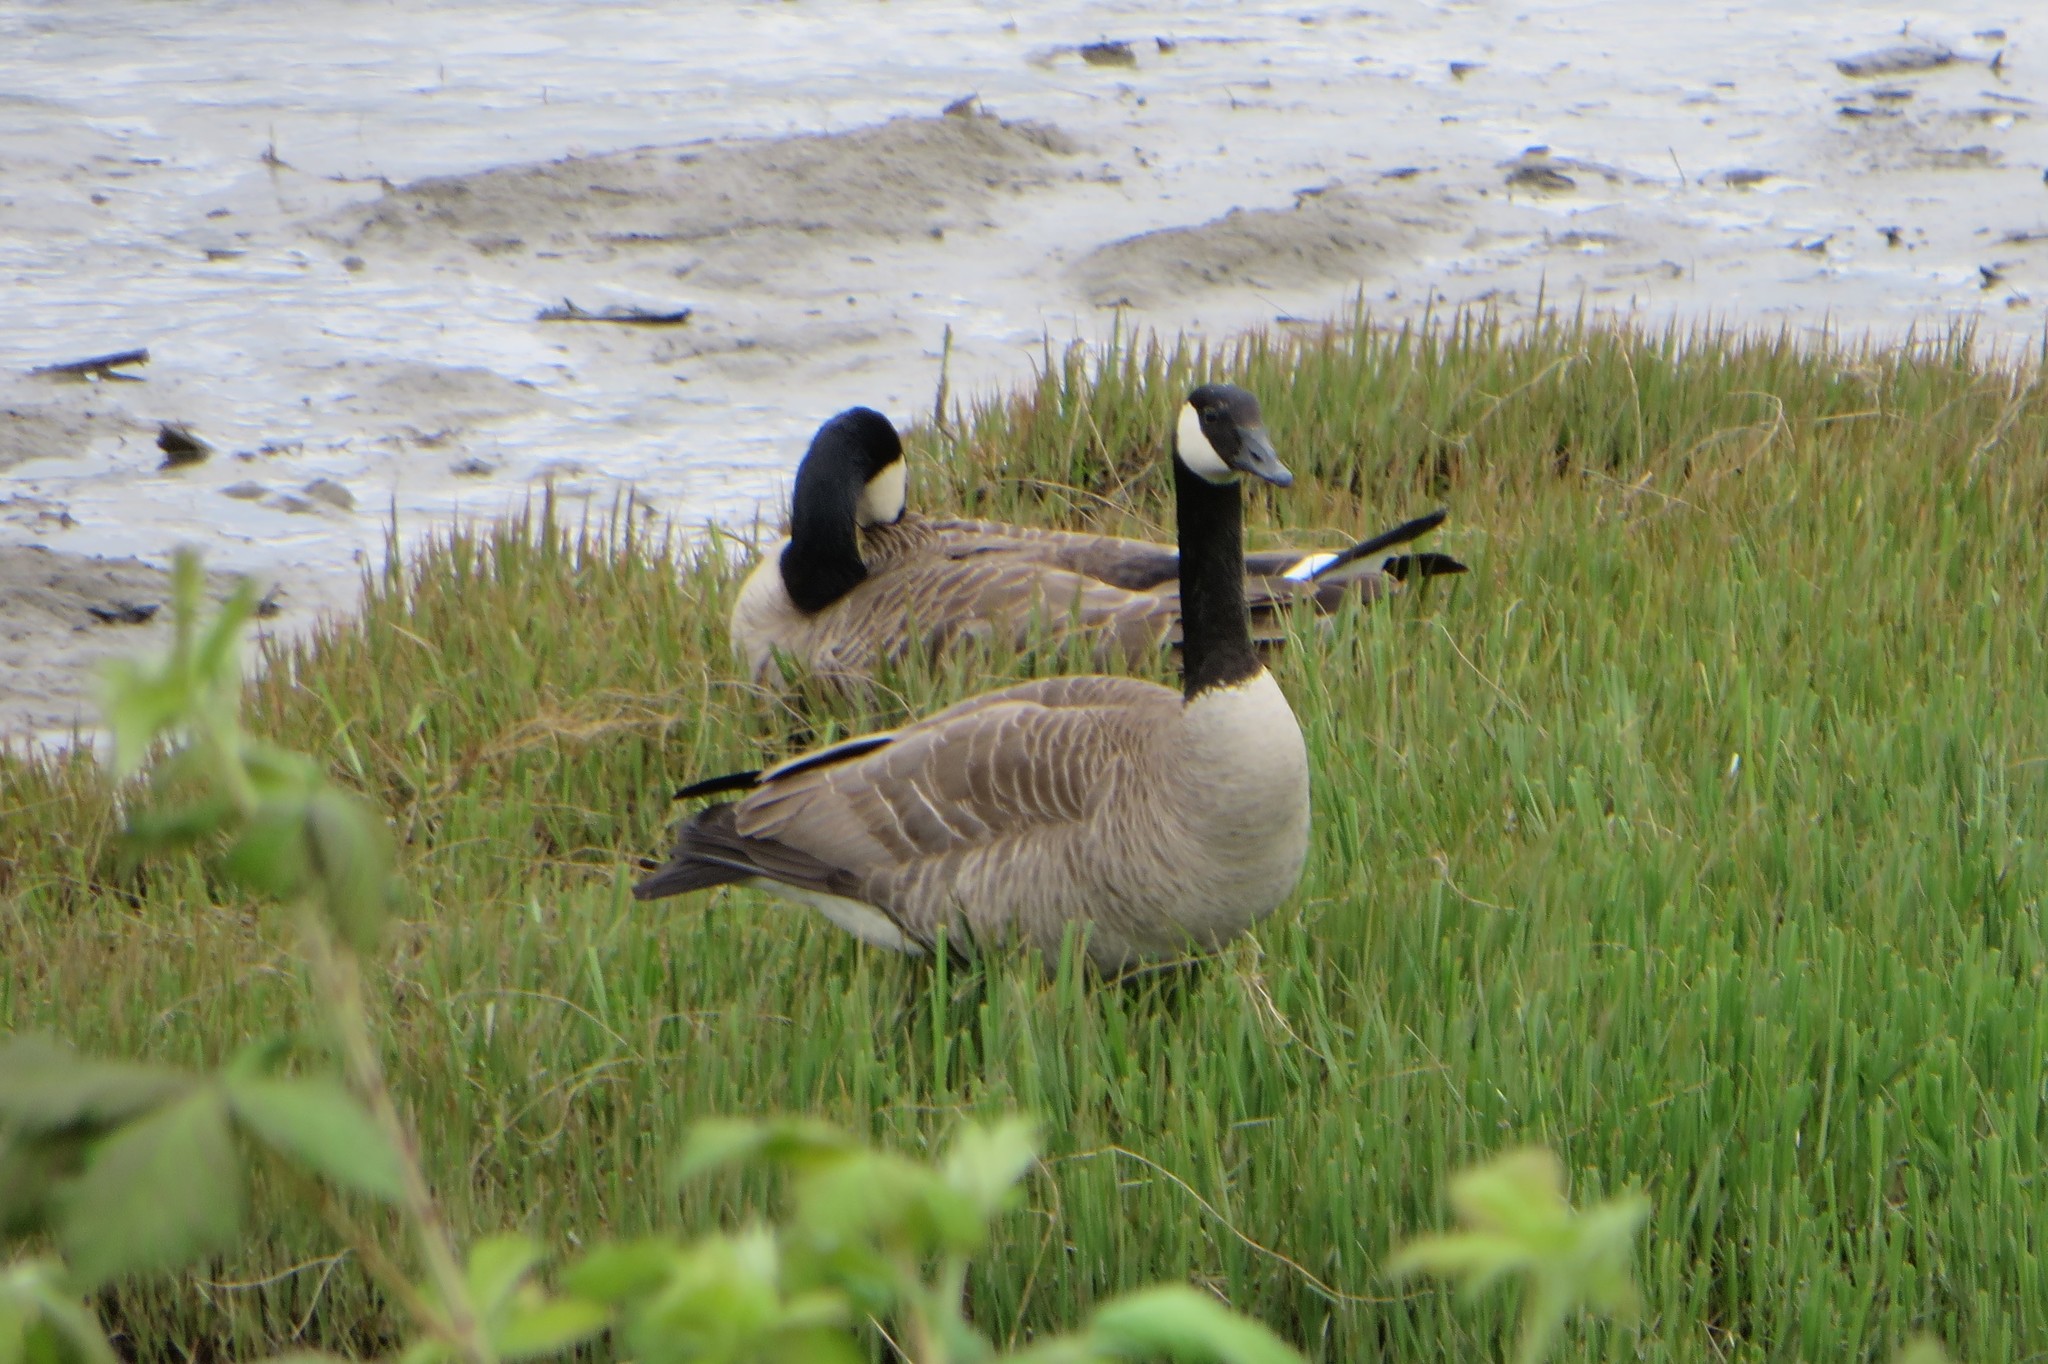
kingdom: Animalia
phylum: Chordata
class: Aves
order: Anseriformes
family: Anatidae
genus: Branta
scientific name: Branta canadensis
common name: Canada goose
